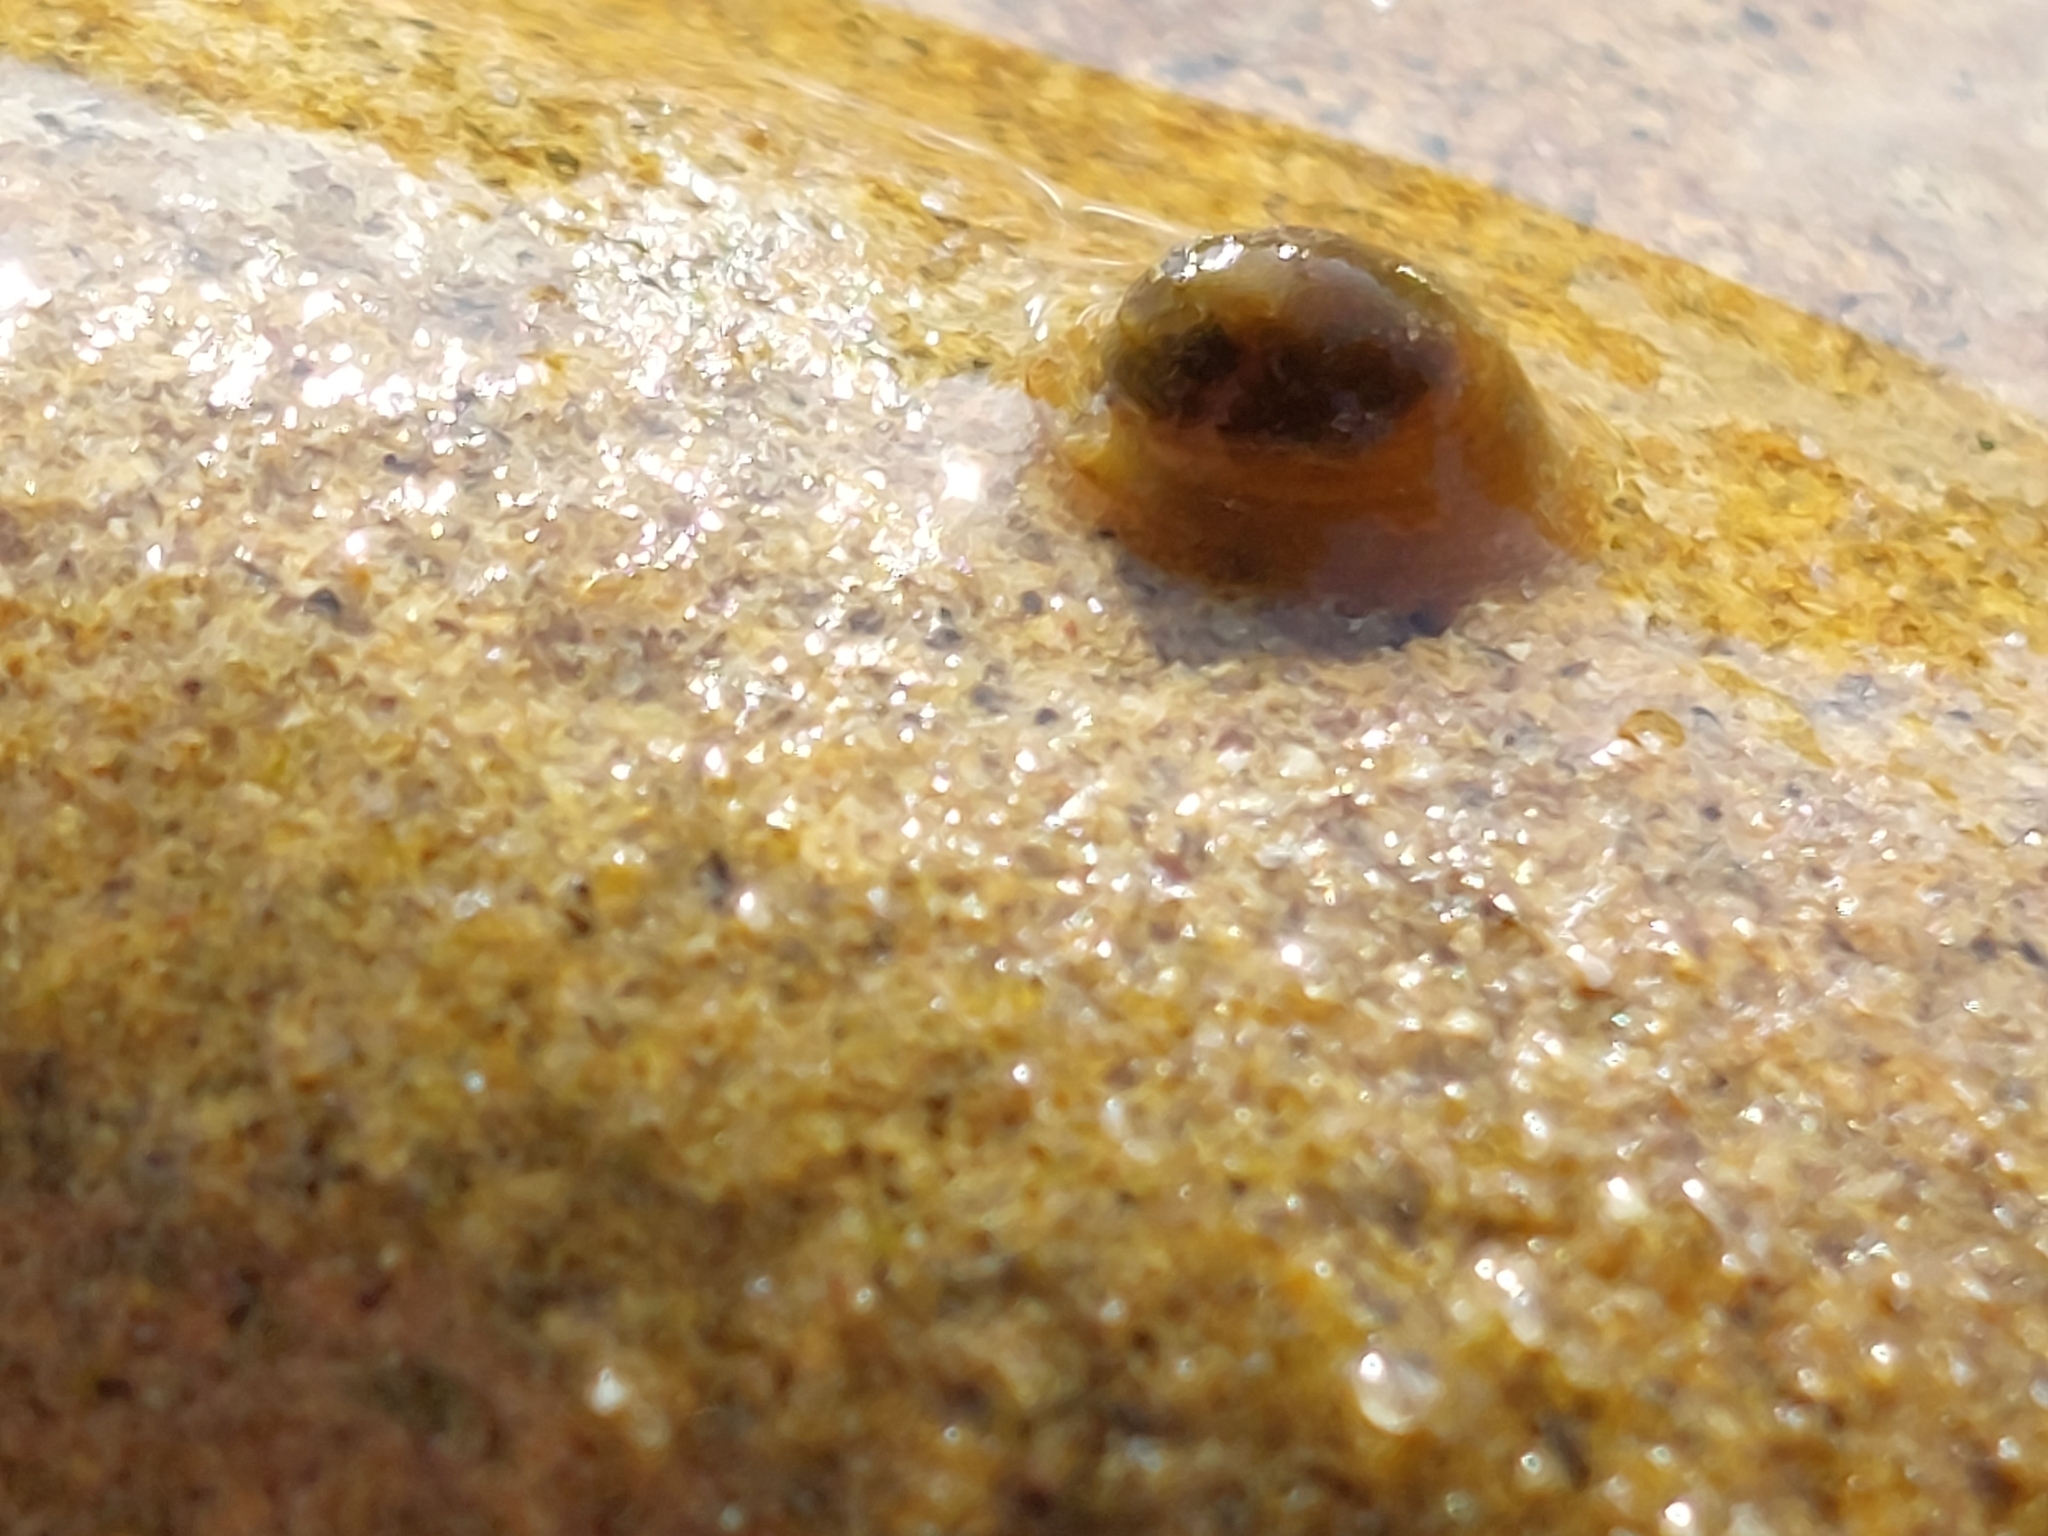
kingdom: Animalia
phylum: Mollusca
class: Gastropoda
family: Planorbidae
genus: Ancylus
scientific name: Ancylus fluviatilis
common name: River limpet
